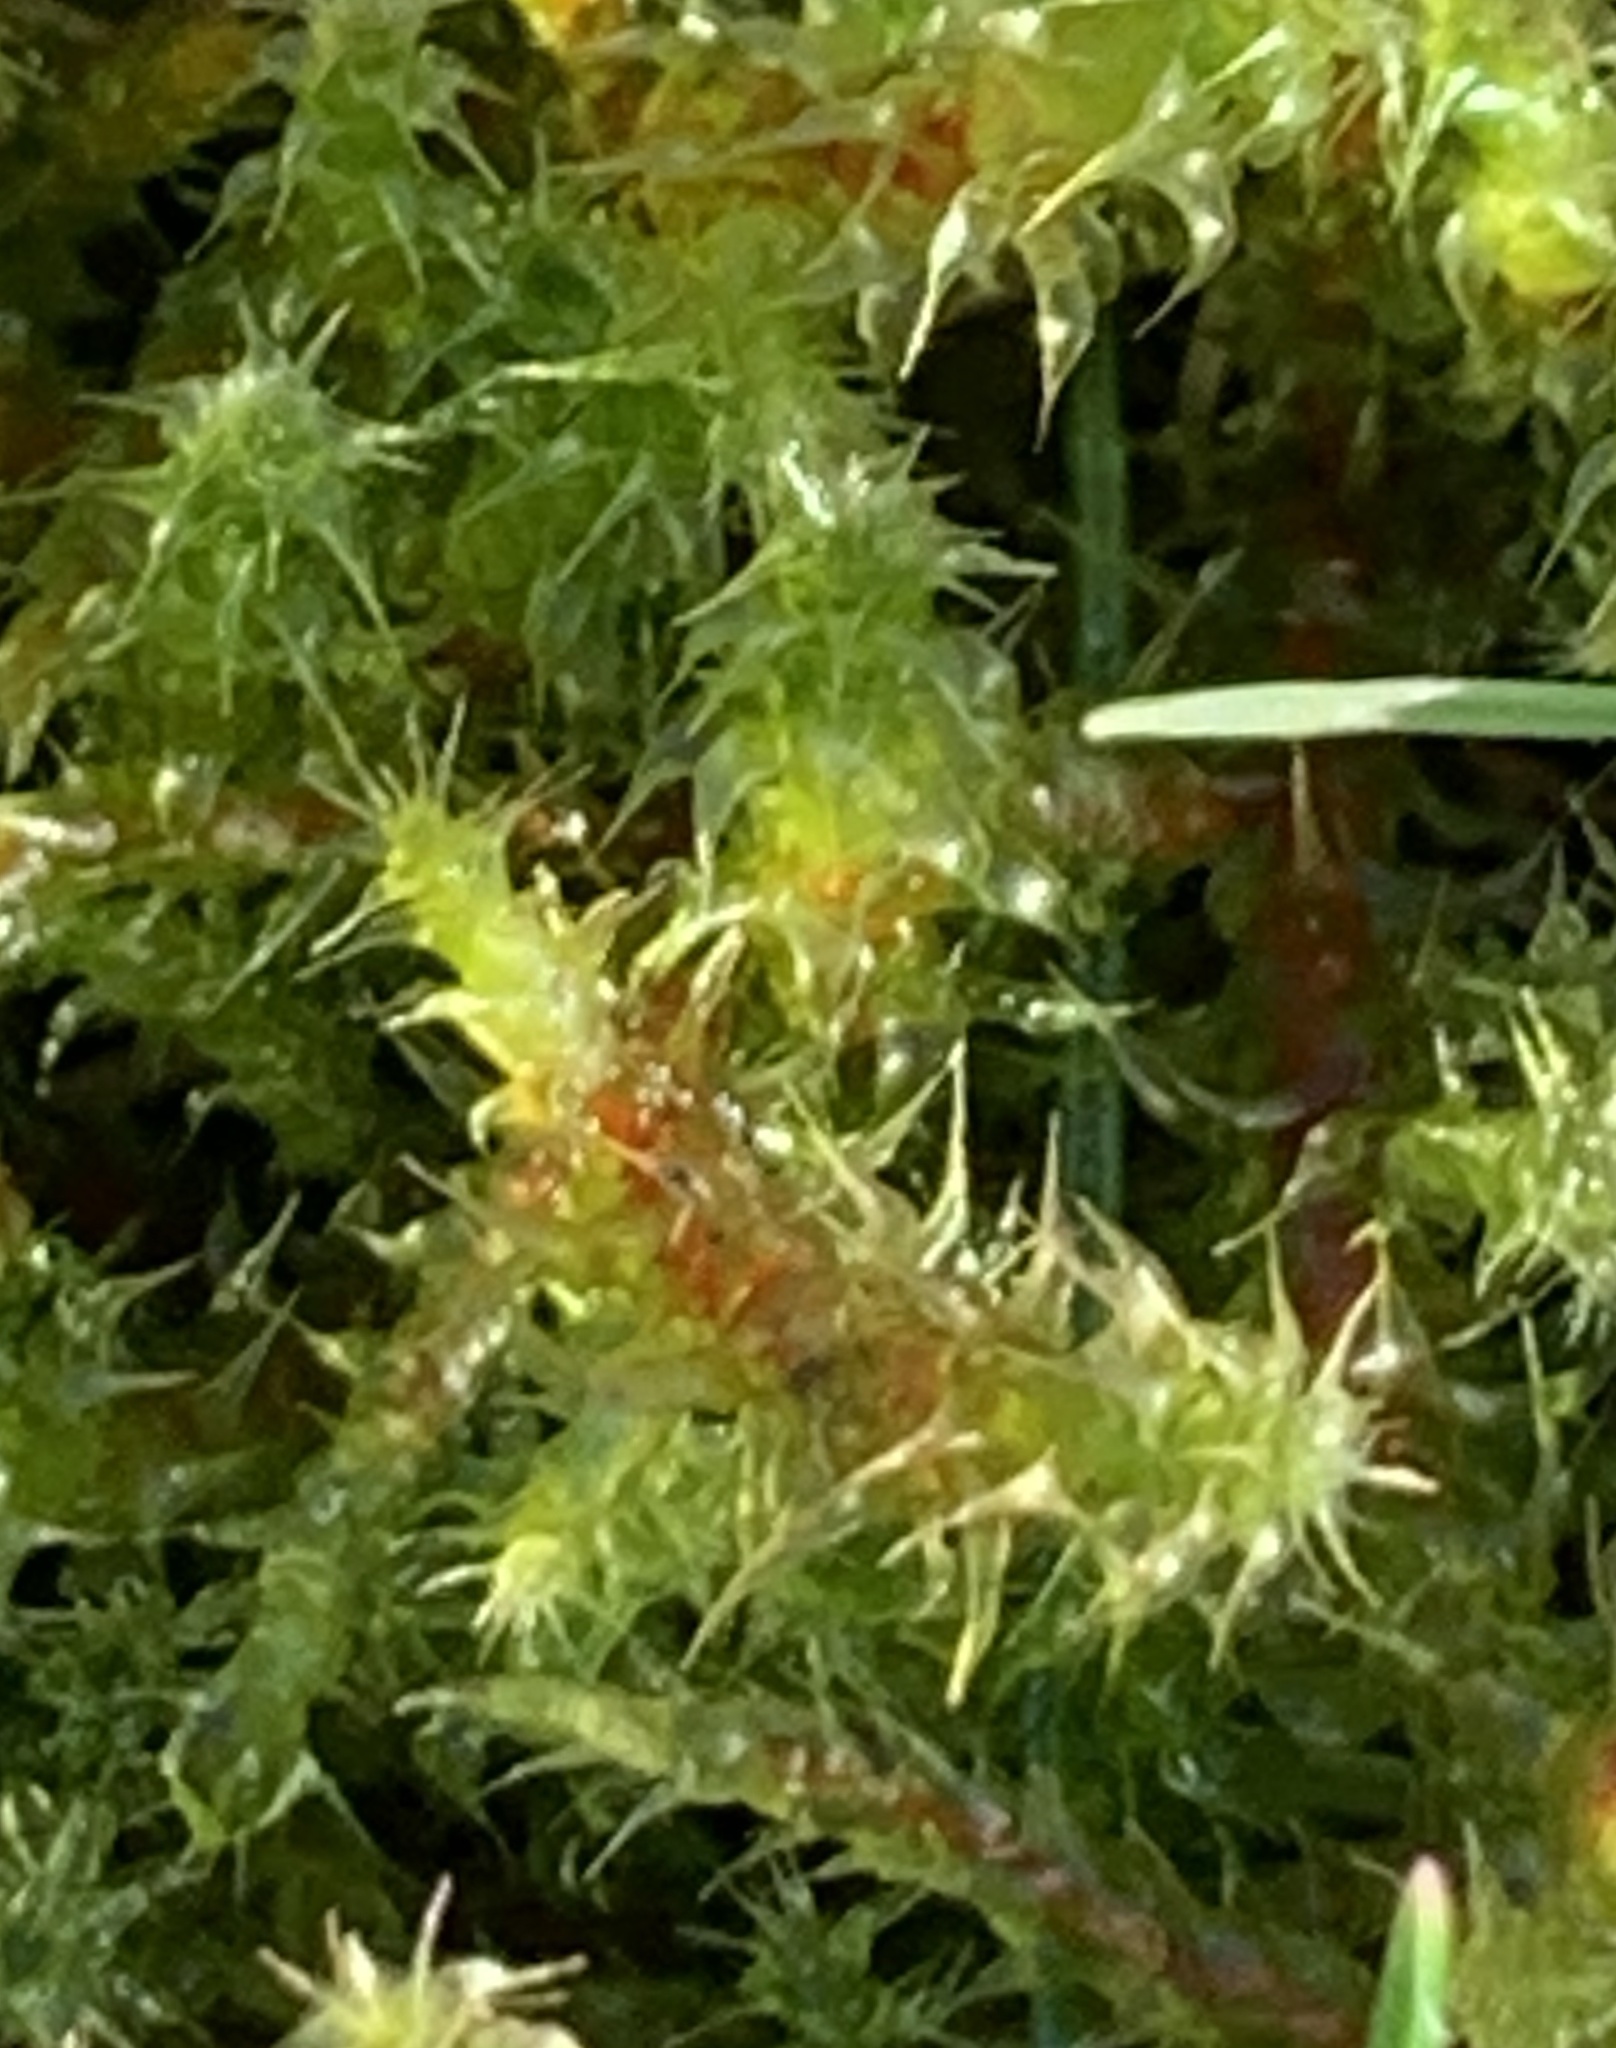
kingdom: Plantae
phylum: Bryophyta
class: Bryopsida
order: Hypnales
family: Hylocomiaceae
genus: Rhytidiadelphus
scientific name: Rhytidiadelphus squarrosus
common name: Springy turf-moss
